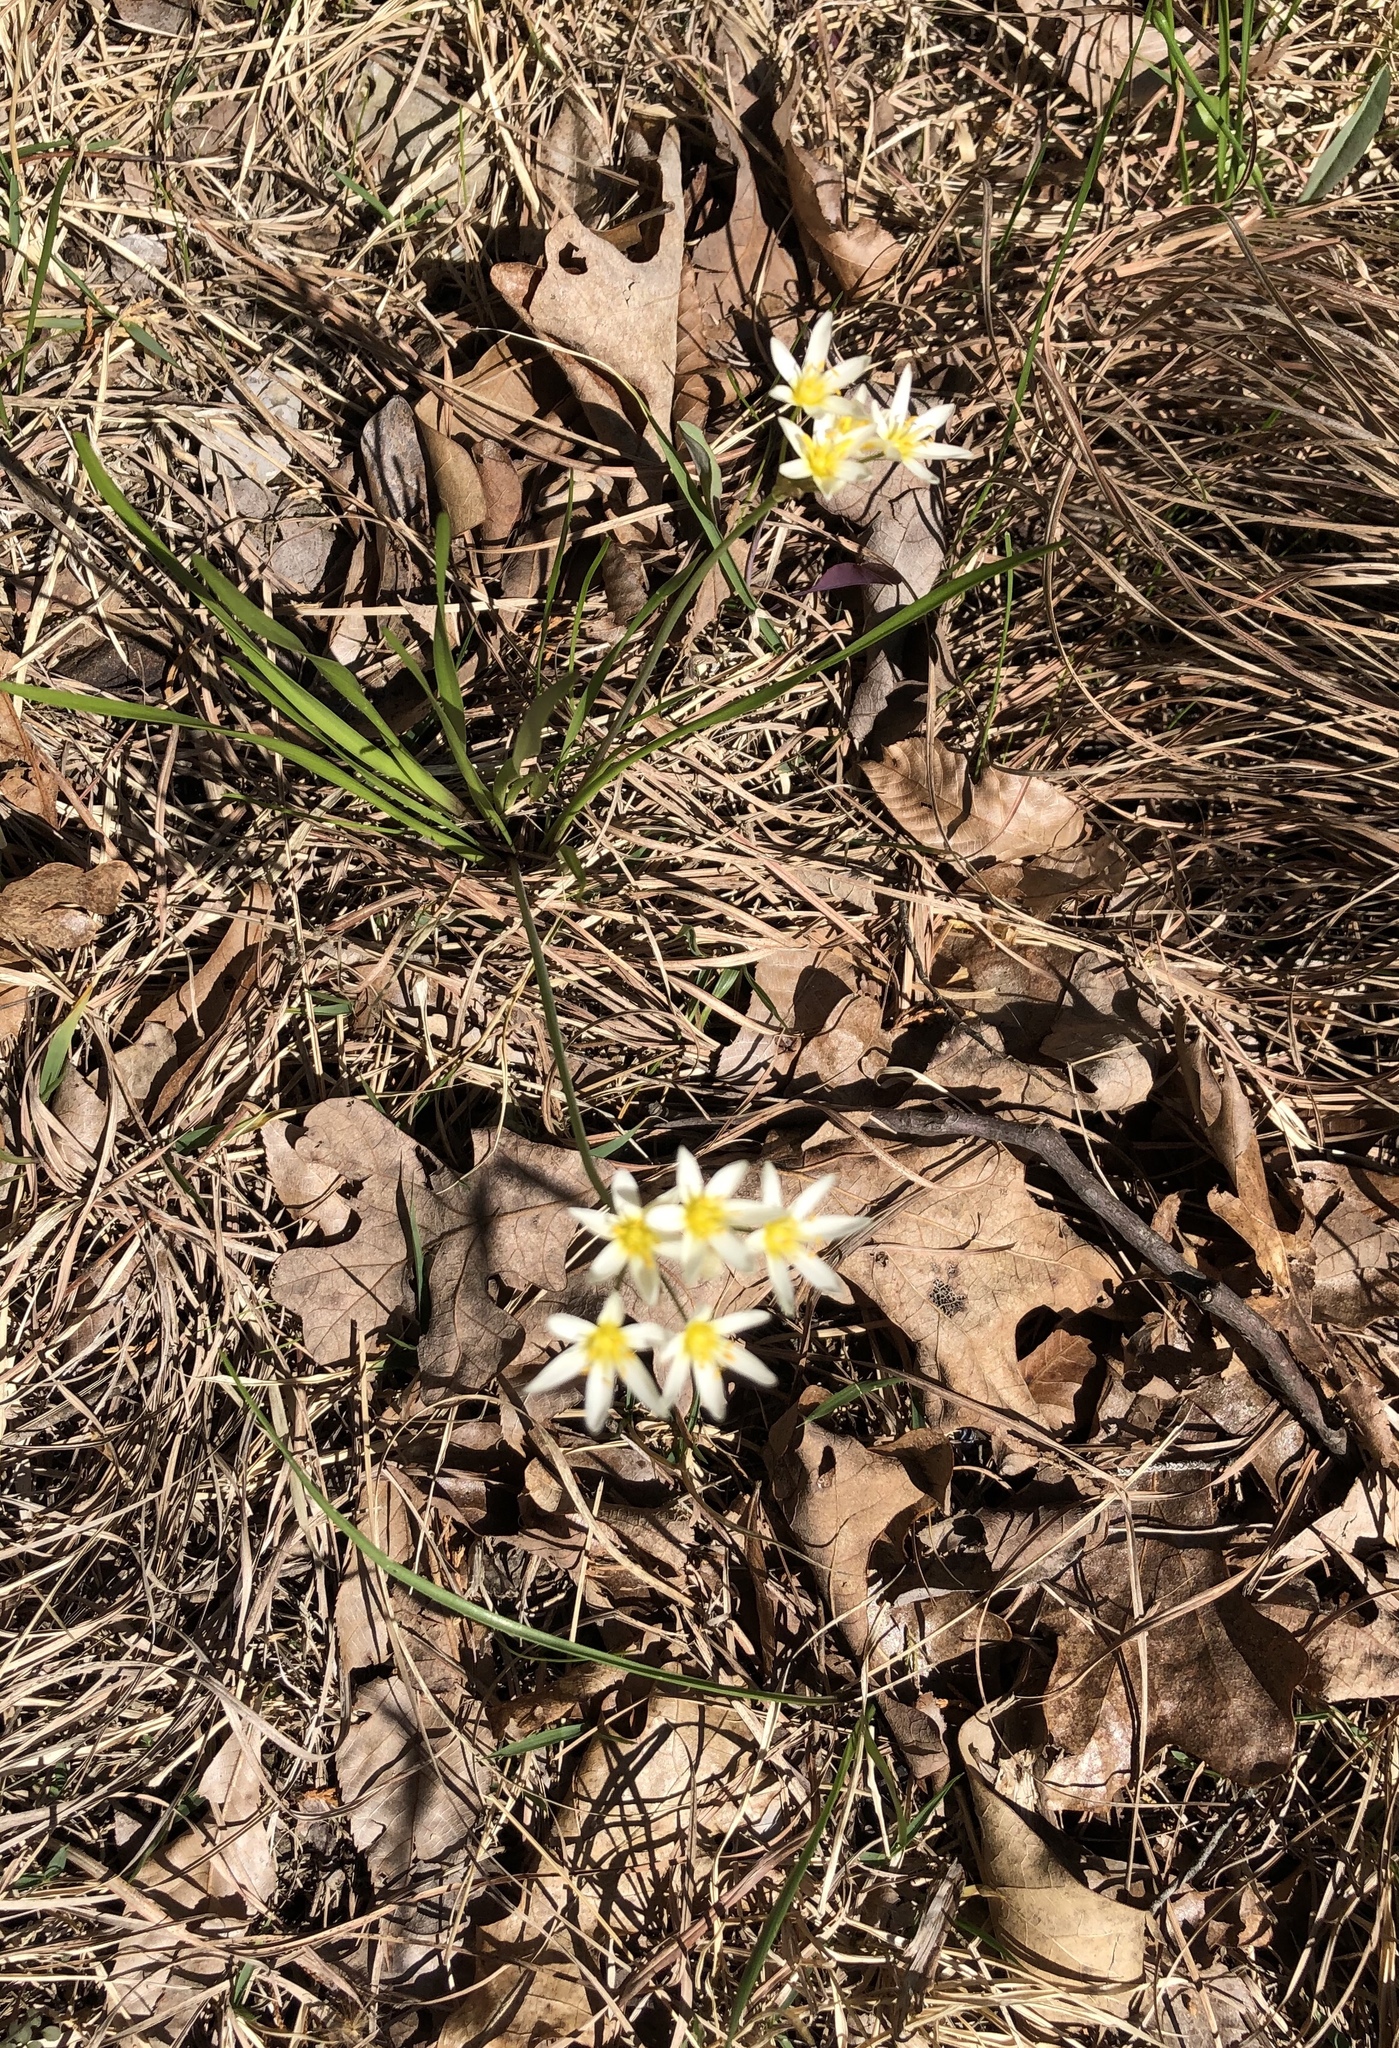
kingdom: Plantae
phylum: Tracheophyta
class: Liliopsida
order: Asparagales
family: Amaryllidaceae
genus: Nothoscordum
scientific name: Nothoscordum bivalve
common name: Crow-poison
